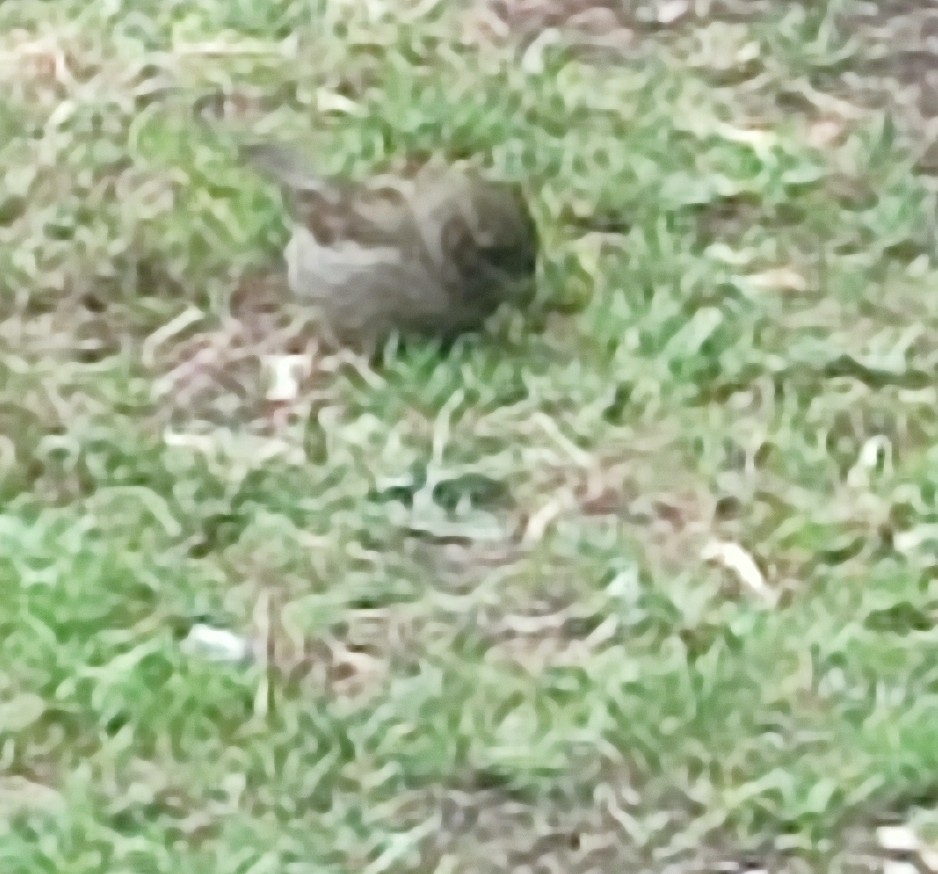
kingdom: Animalia
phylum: Chordata
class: Aves
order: Passeriformes
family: Passeridae
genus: Passer
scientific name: Passer domesticus
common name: House sparrow
